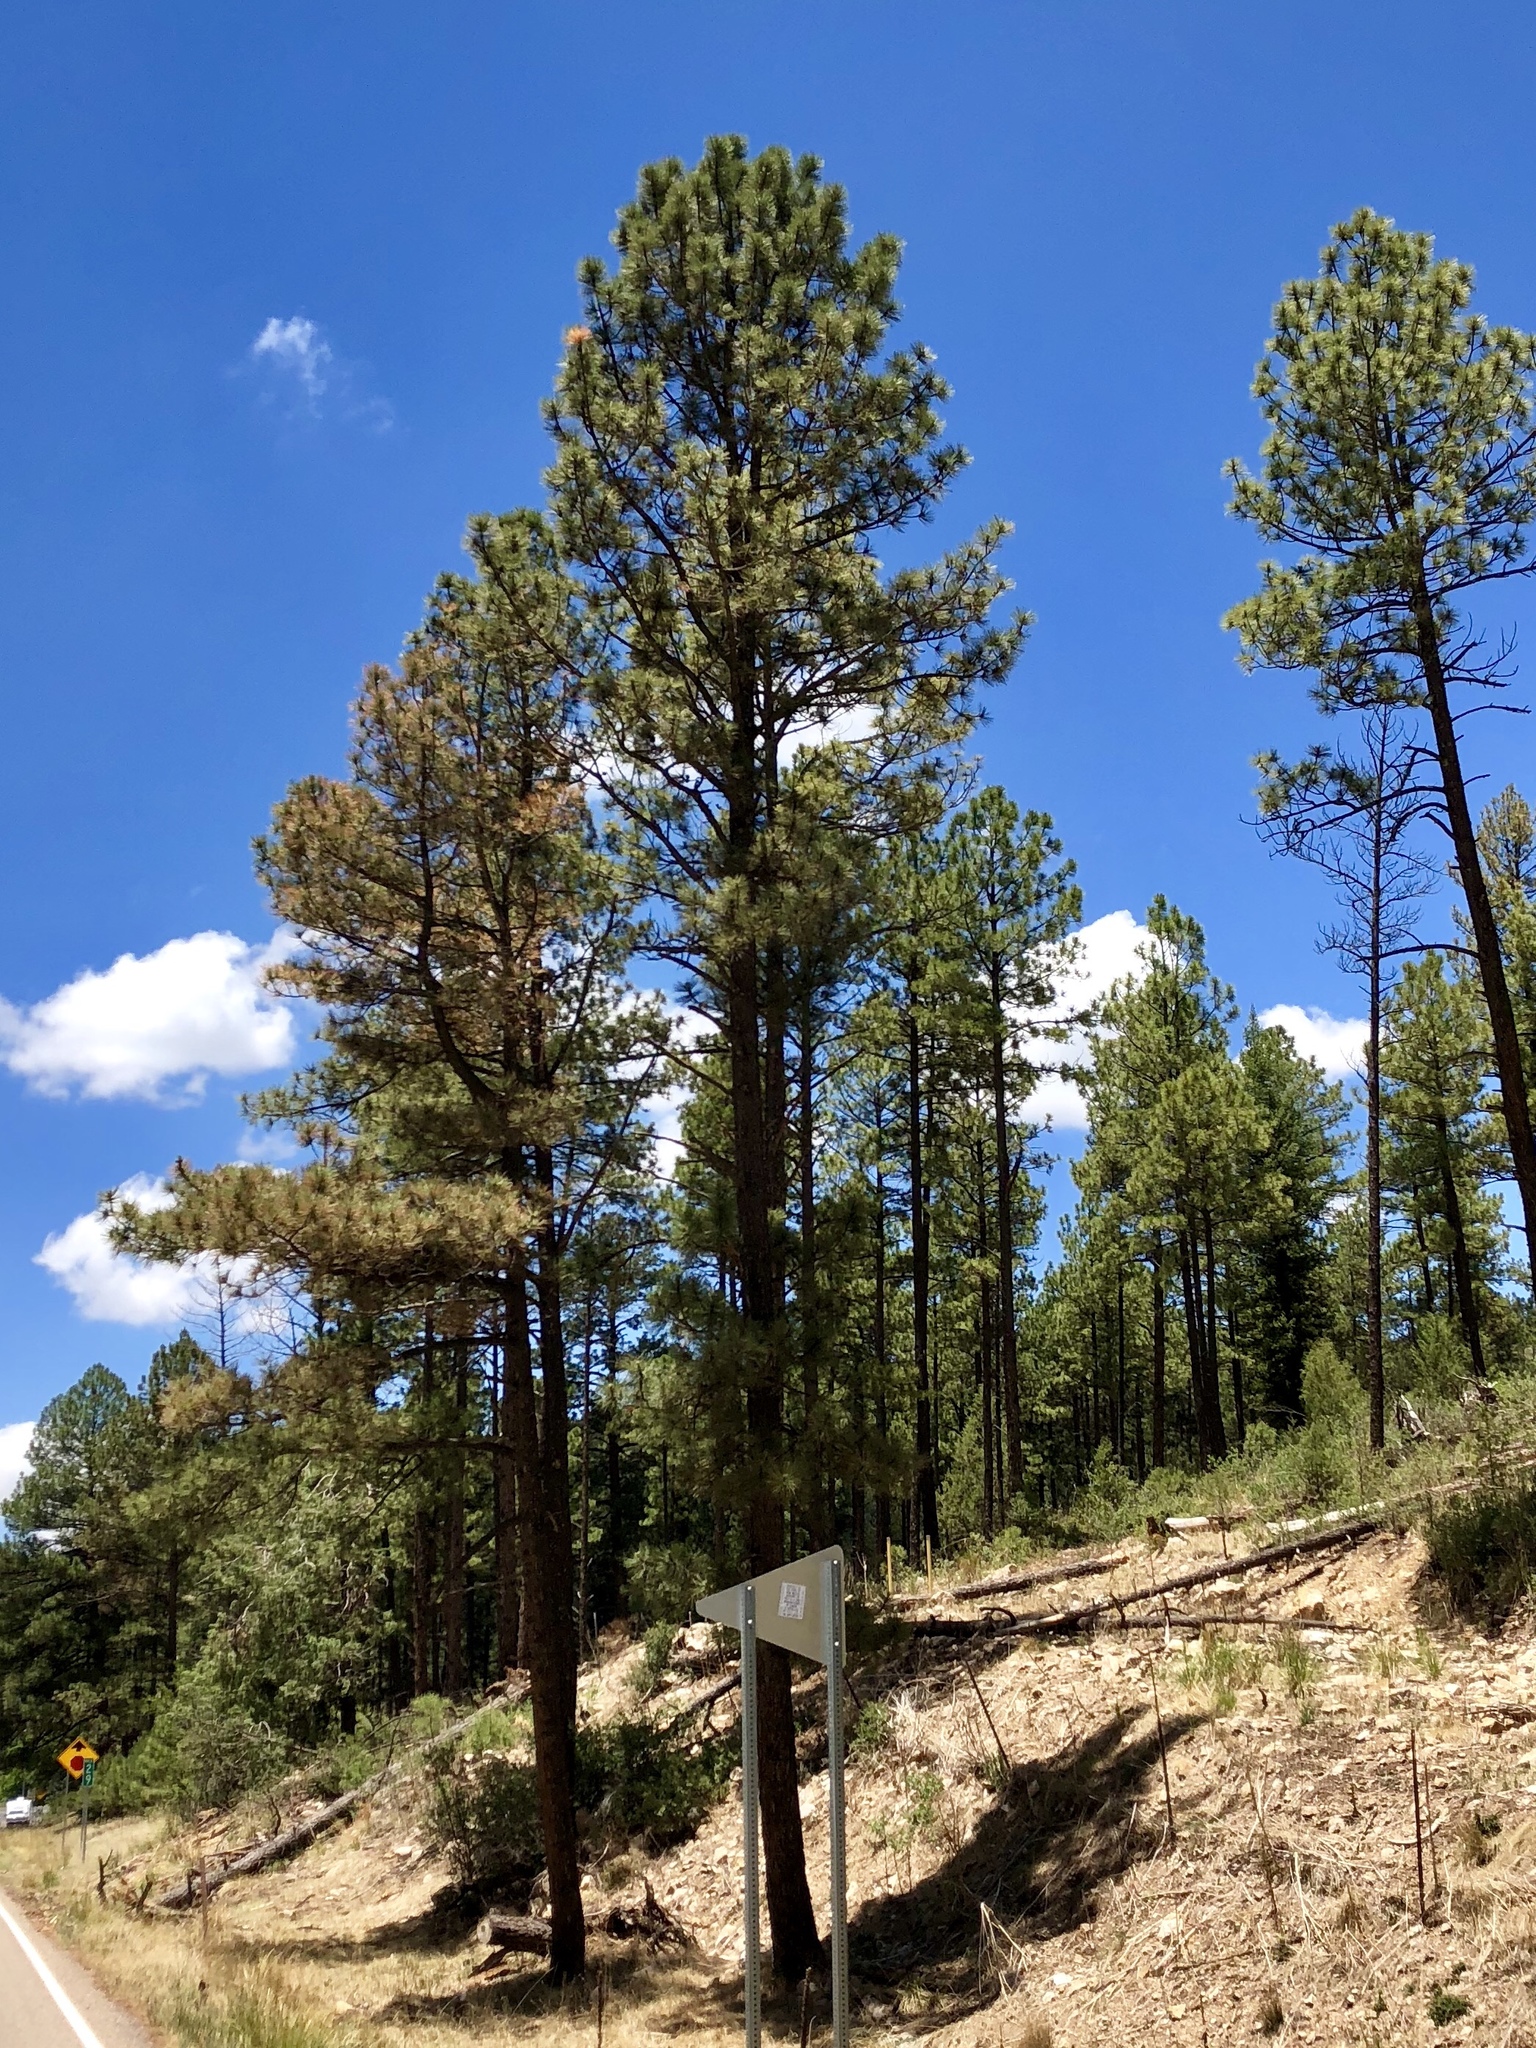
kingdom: Plantae
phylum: Tracheophyta
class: Pinopsida
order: Pinales
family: Pinaceae
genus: Pinus
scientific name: Pinus ponderosa
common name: Western yellow-pine
